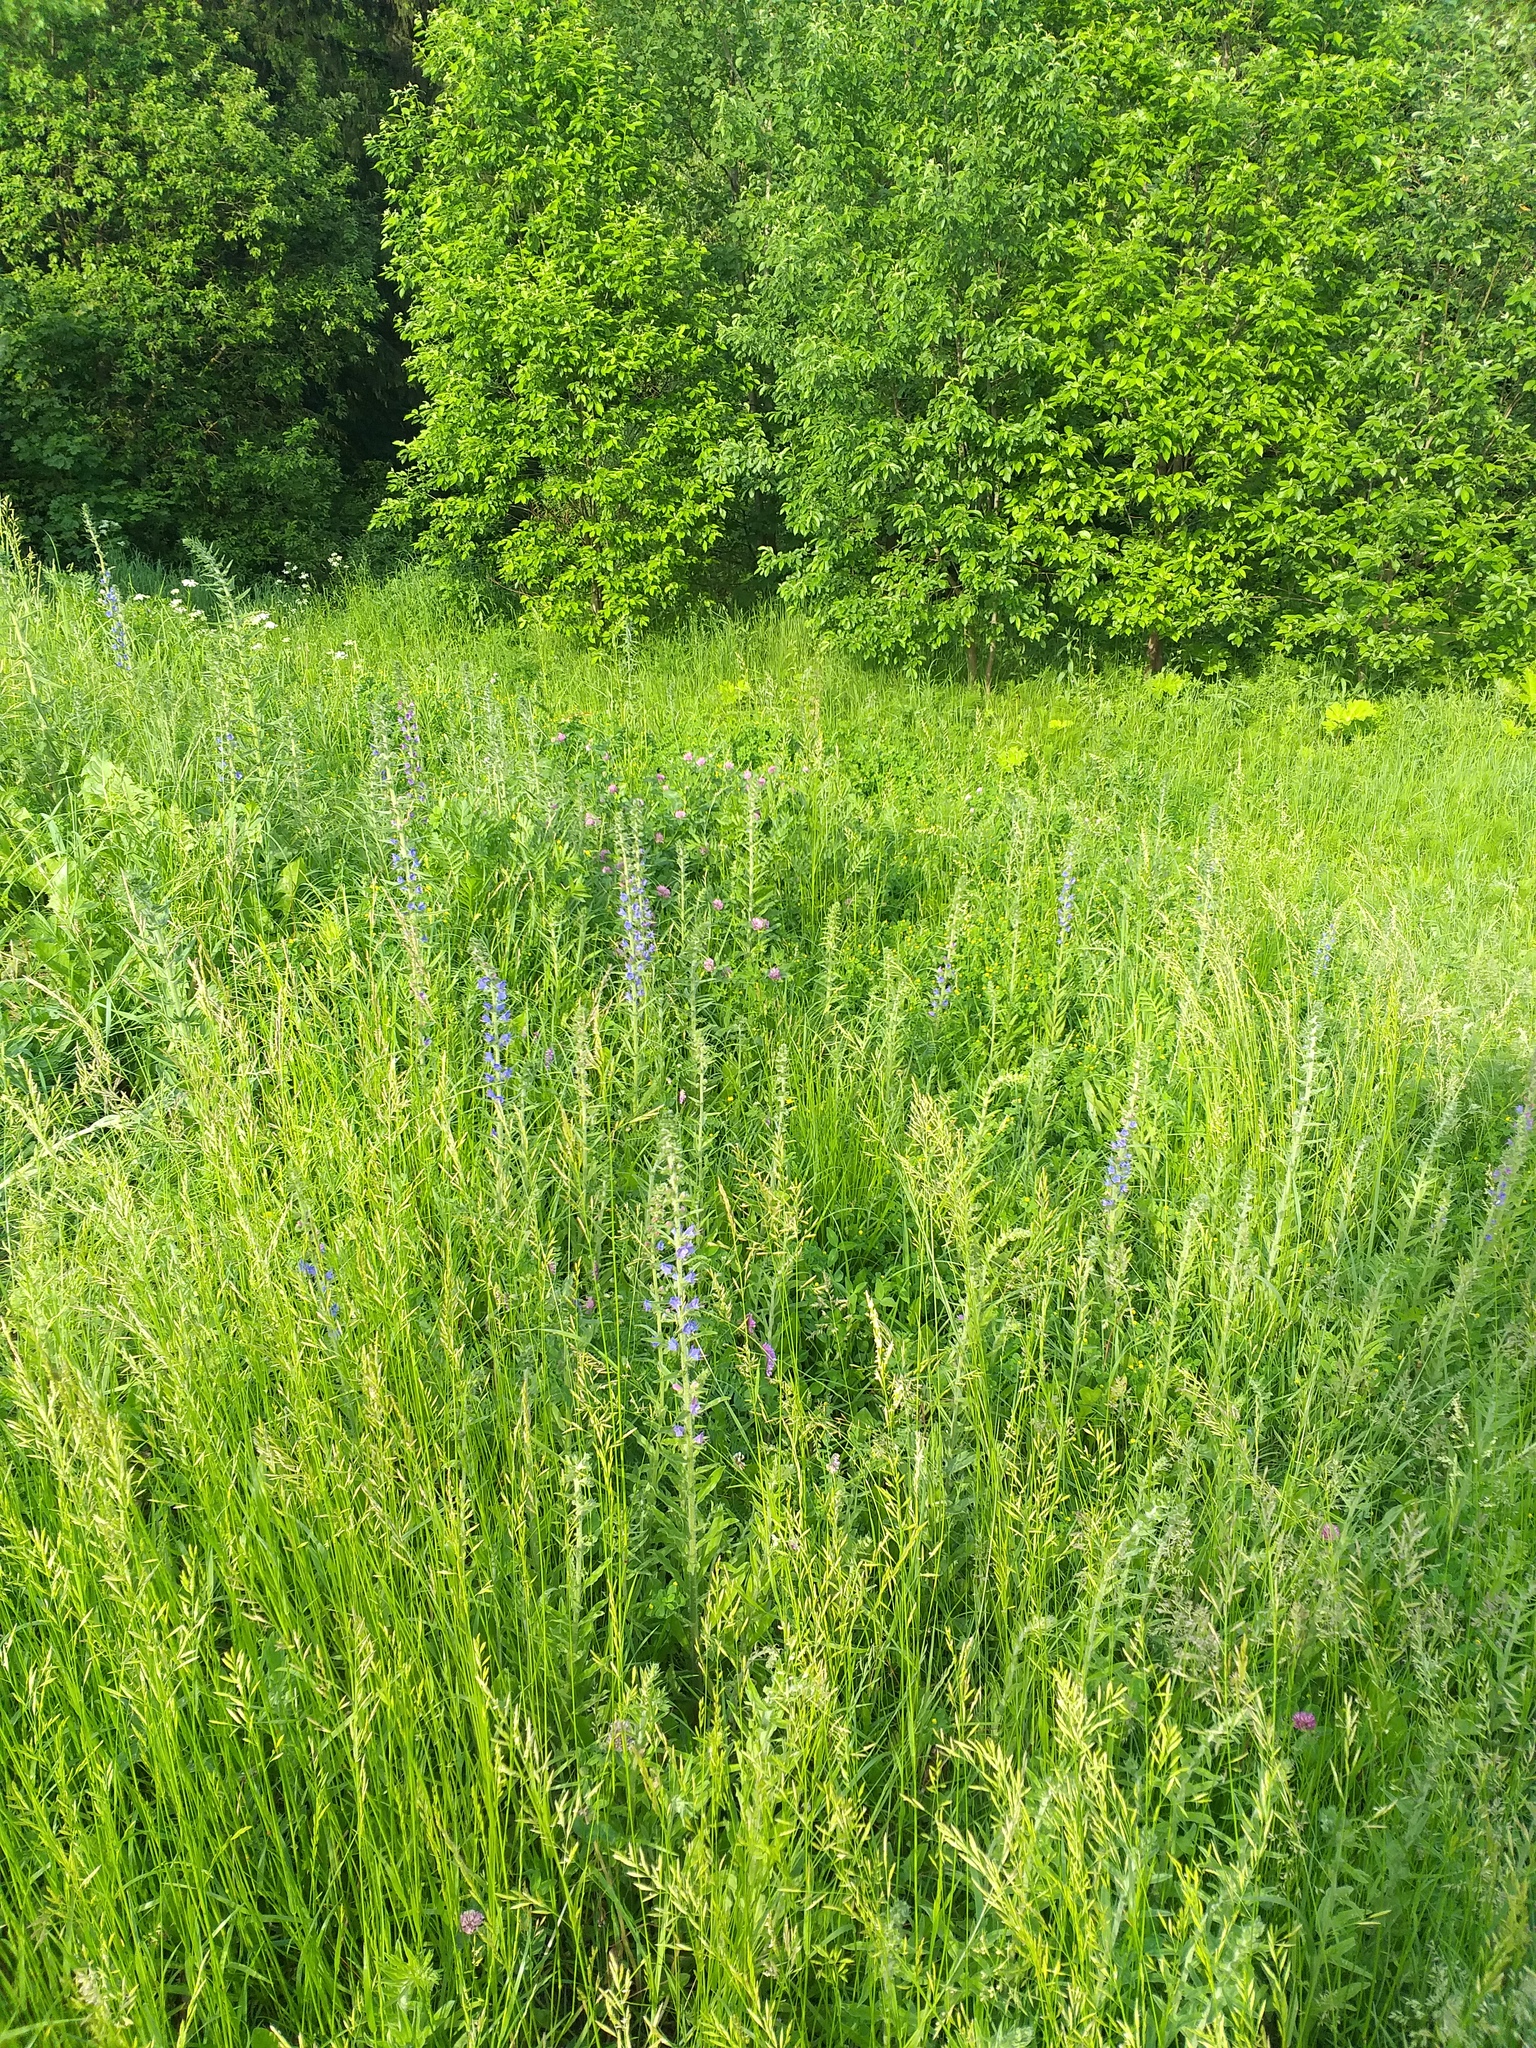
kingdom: Plantae
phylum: Tracheophyta
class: Magnoliopsida
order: Boraginales
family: Boraginaceae
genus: Echium
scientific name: Echium vulgare
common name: Common viper's bugloss
